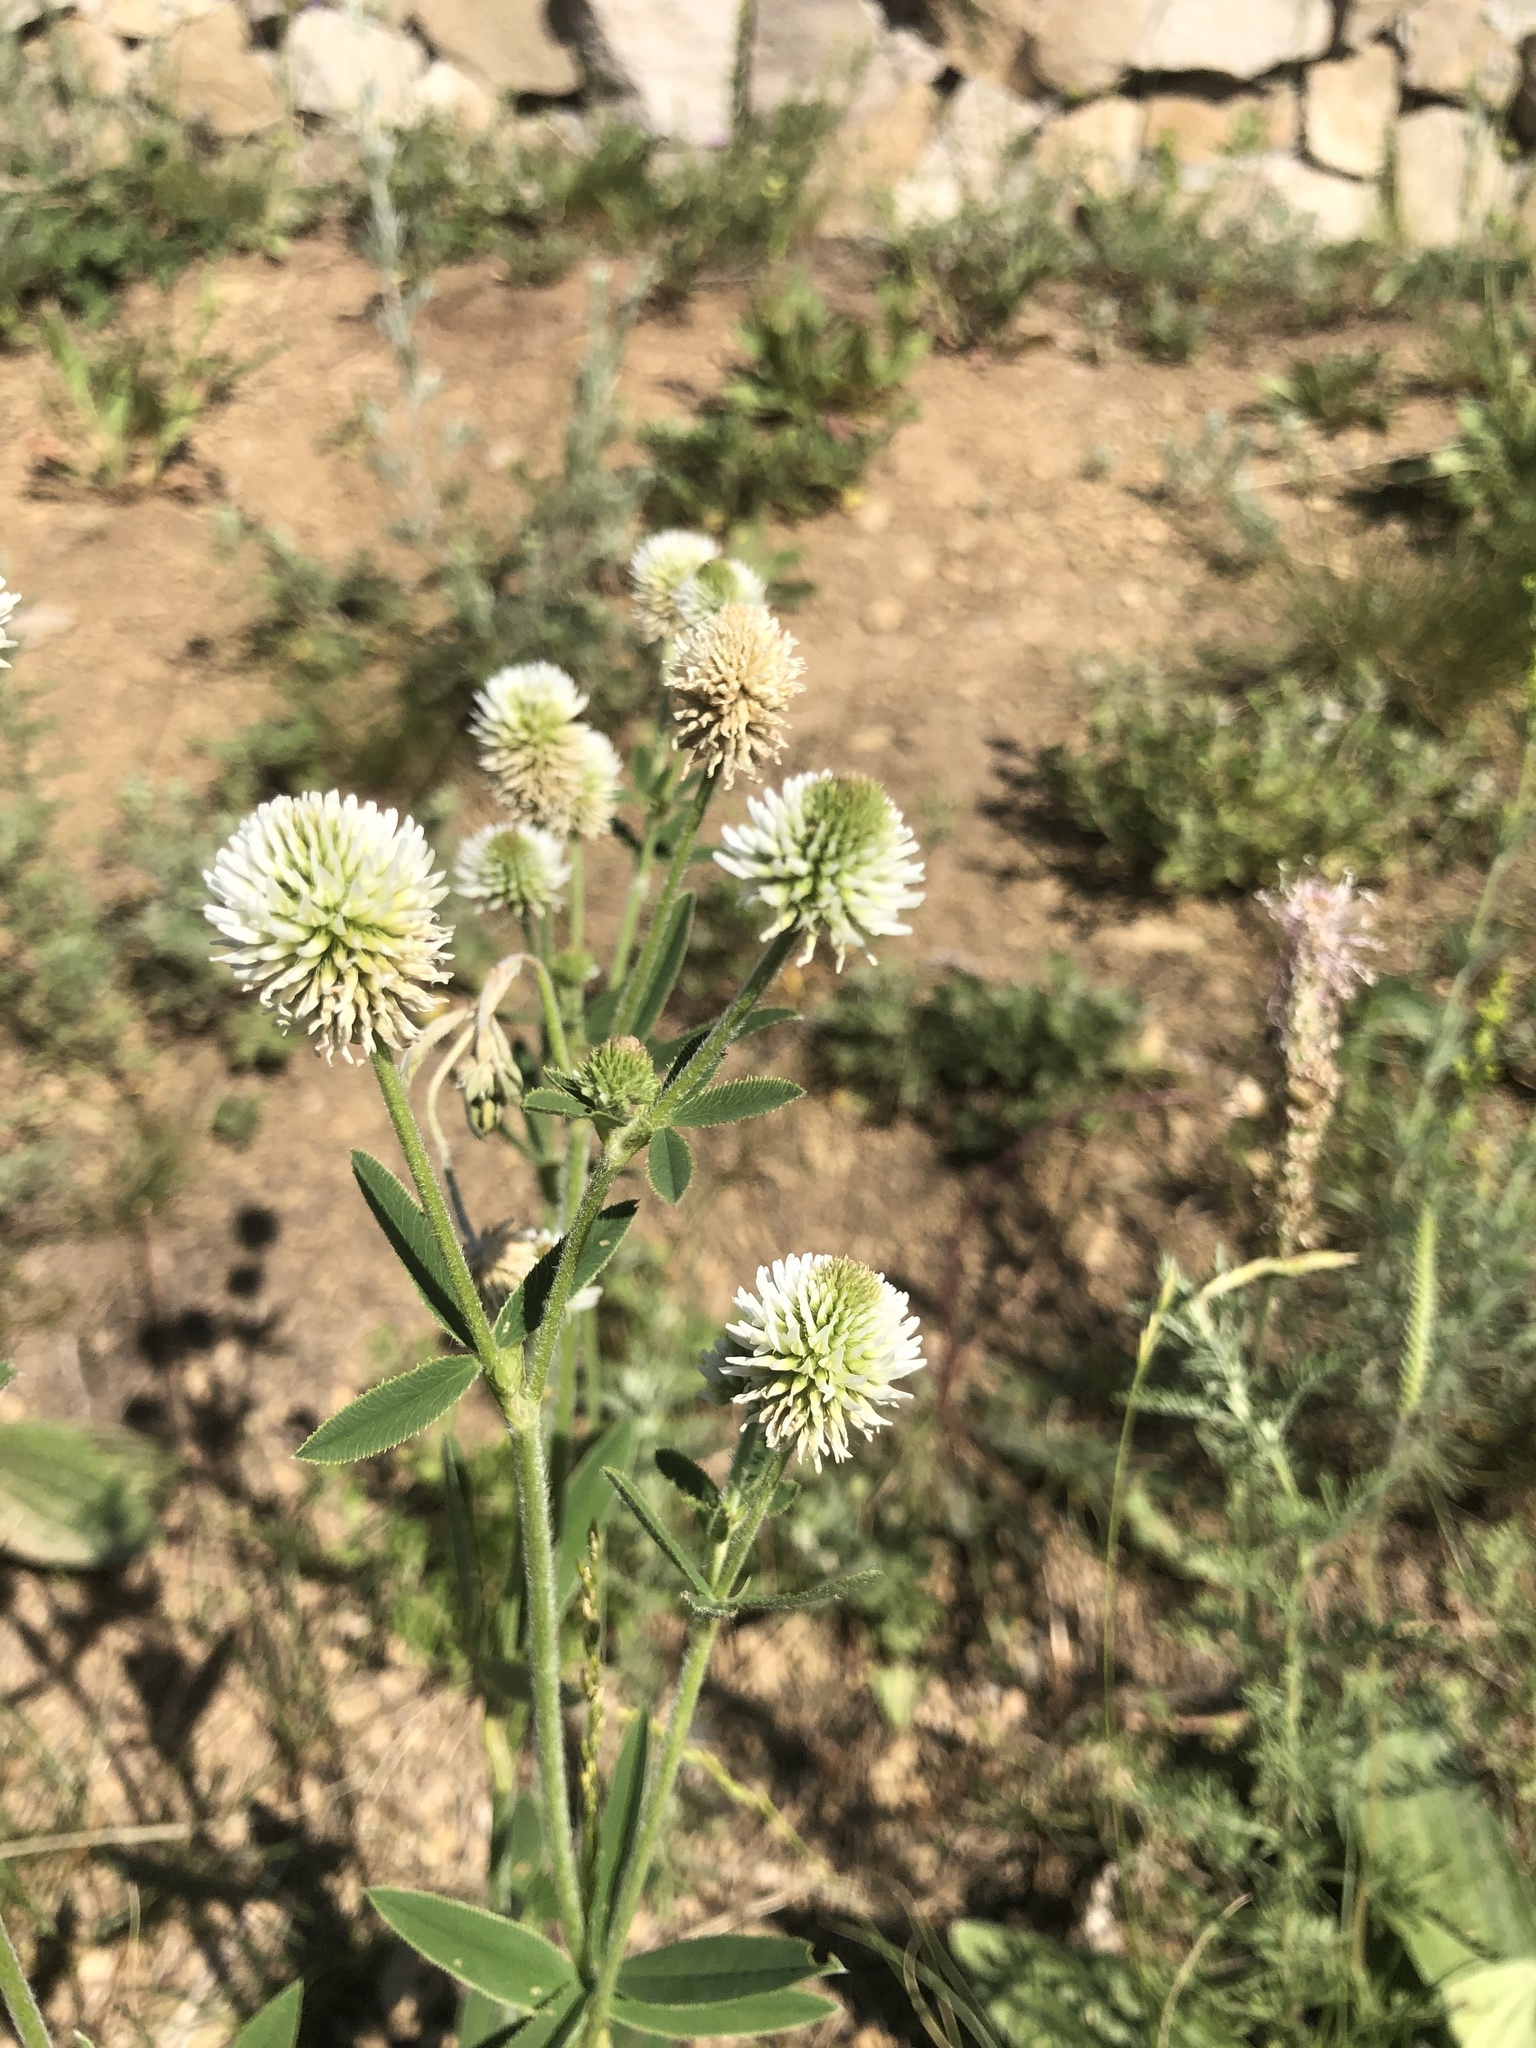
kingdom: Plantae
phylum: Tracheophyta
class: Magnoliopsida
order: Fabales
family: Fabaceae
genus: Trifolium
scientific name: Trifolium montanum
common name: Mountain clover
